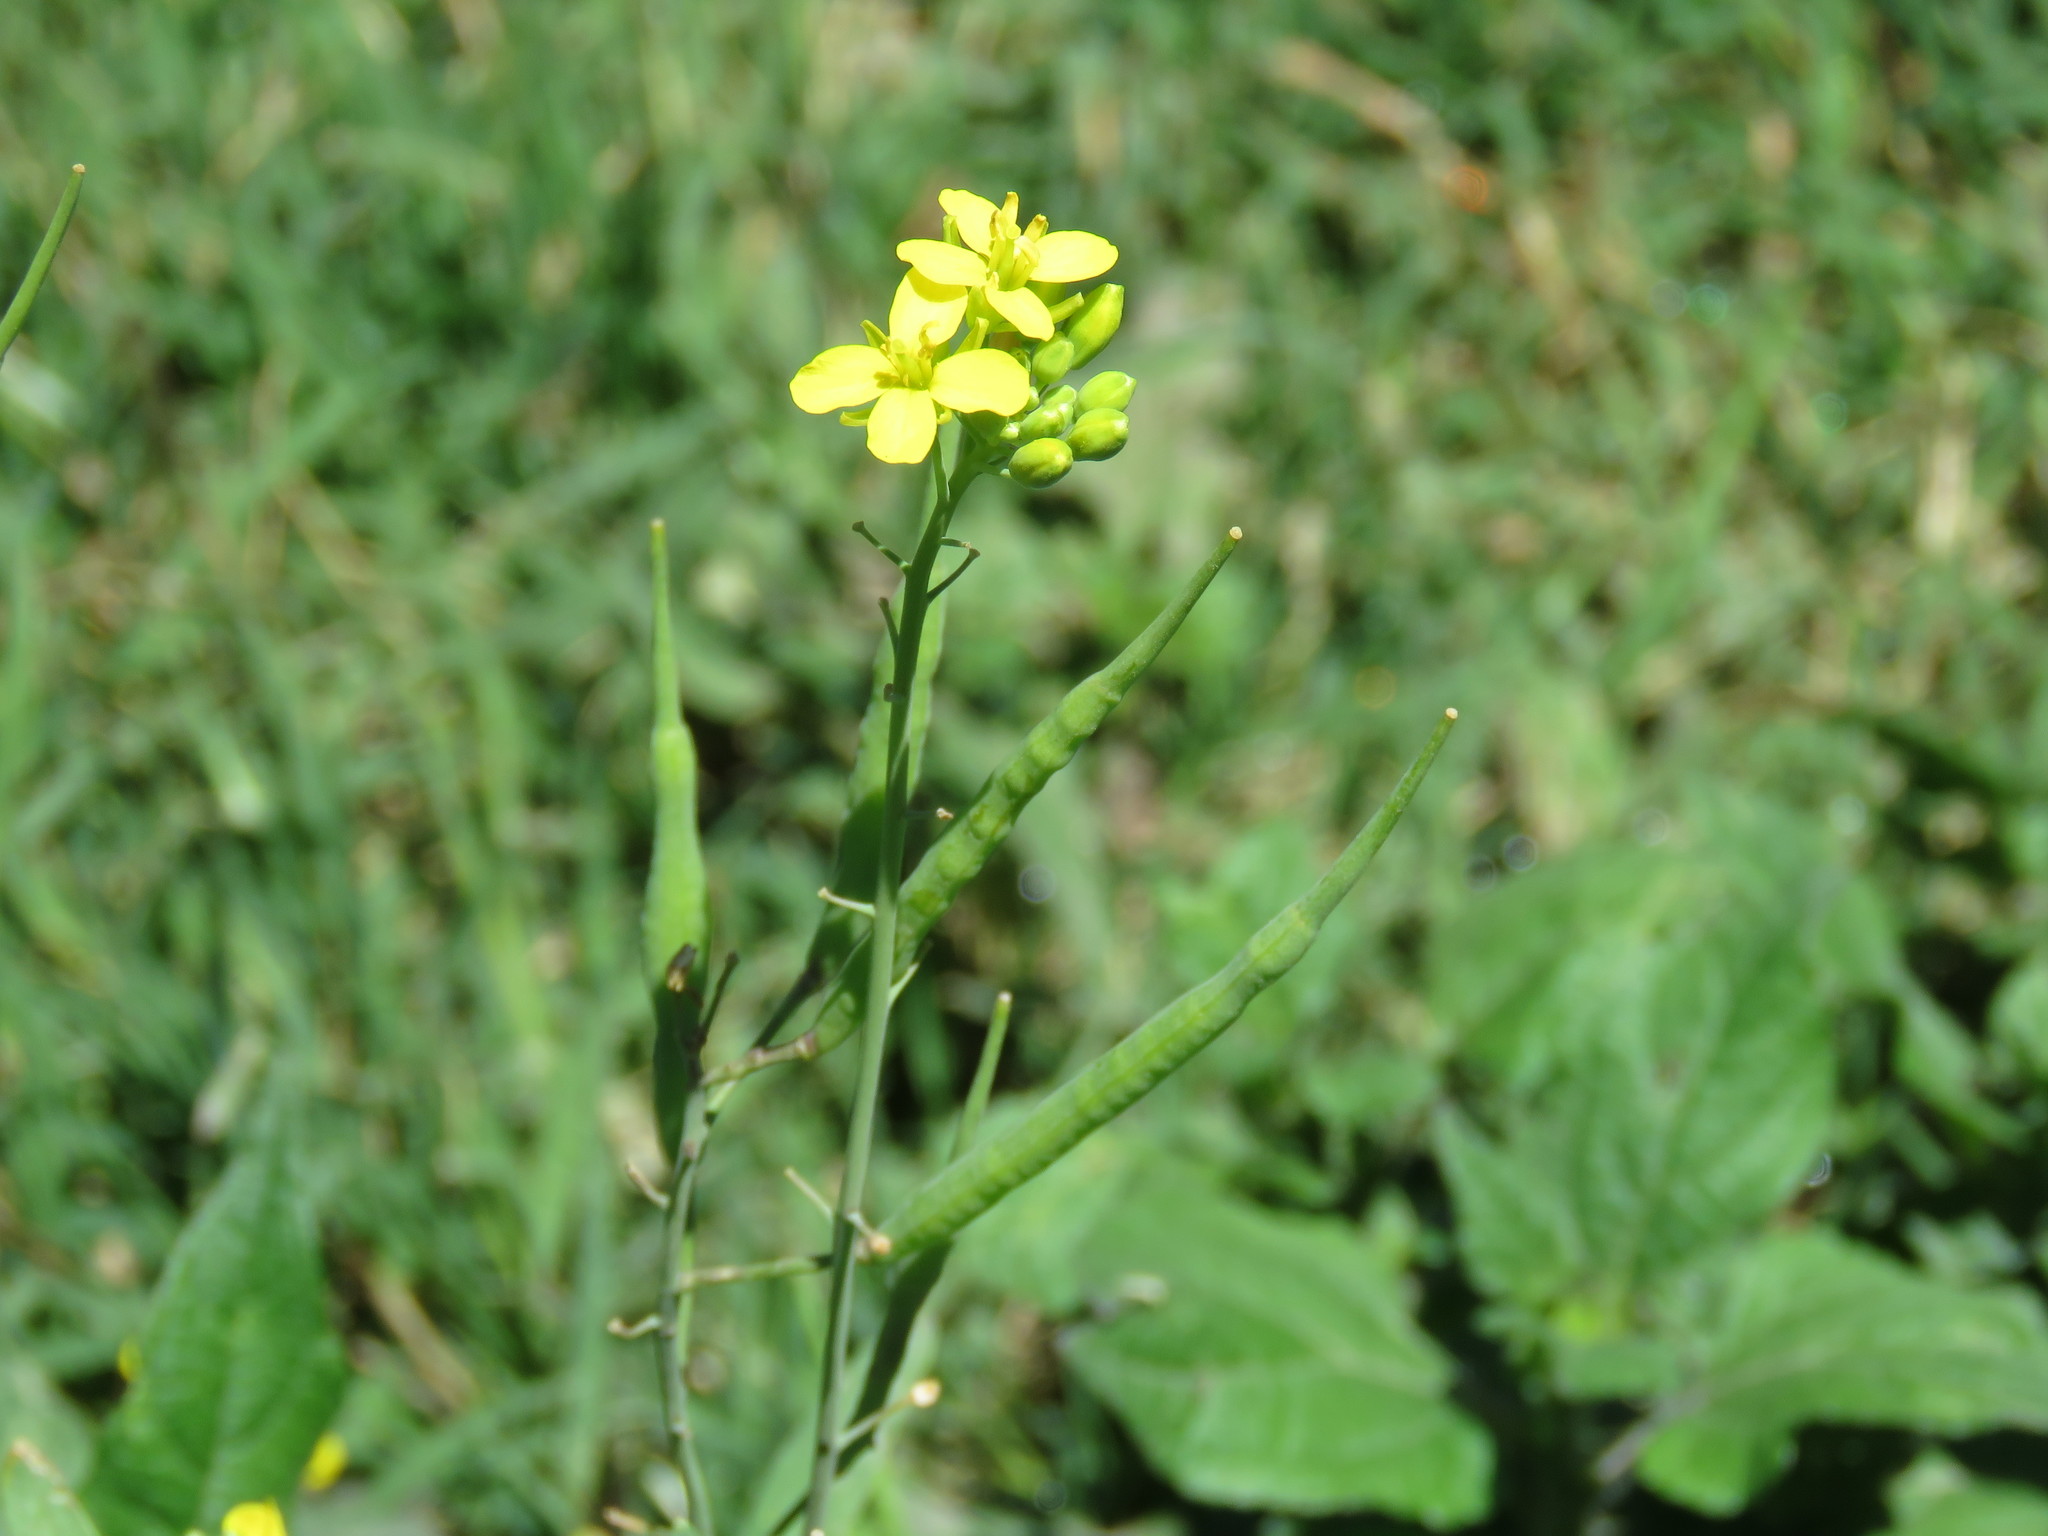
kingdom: Plantae
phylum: Tracheophyta
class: Magnoliopsida
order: Brassicales
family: Brassicaceae
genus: Brassica
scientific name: Brassica rapa
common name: Field mustard
